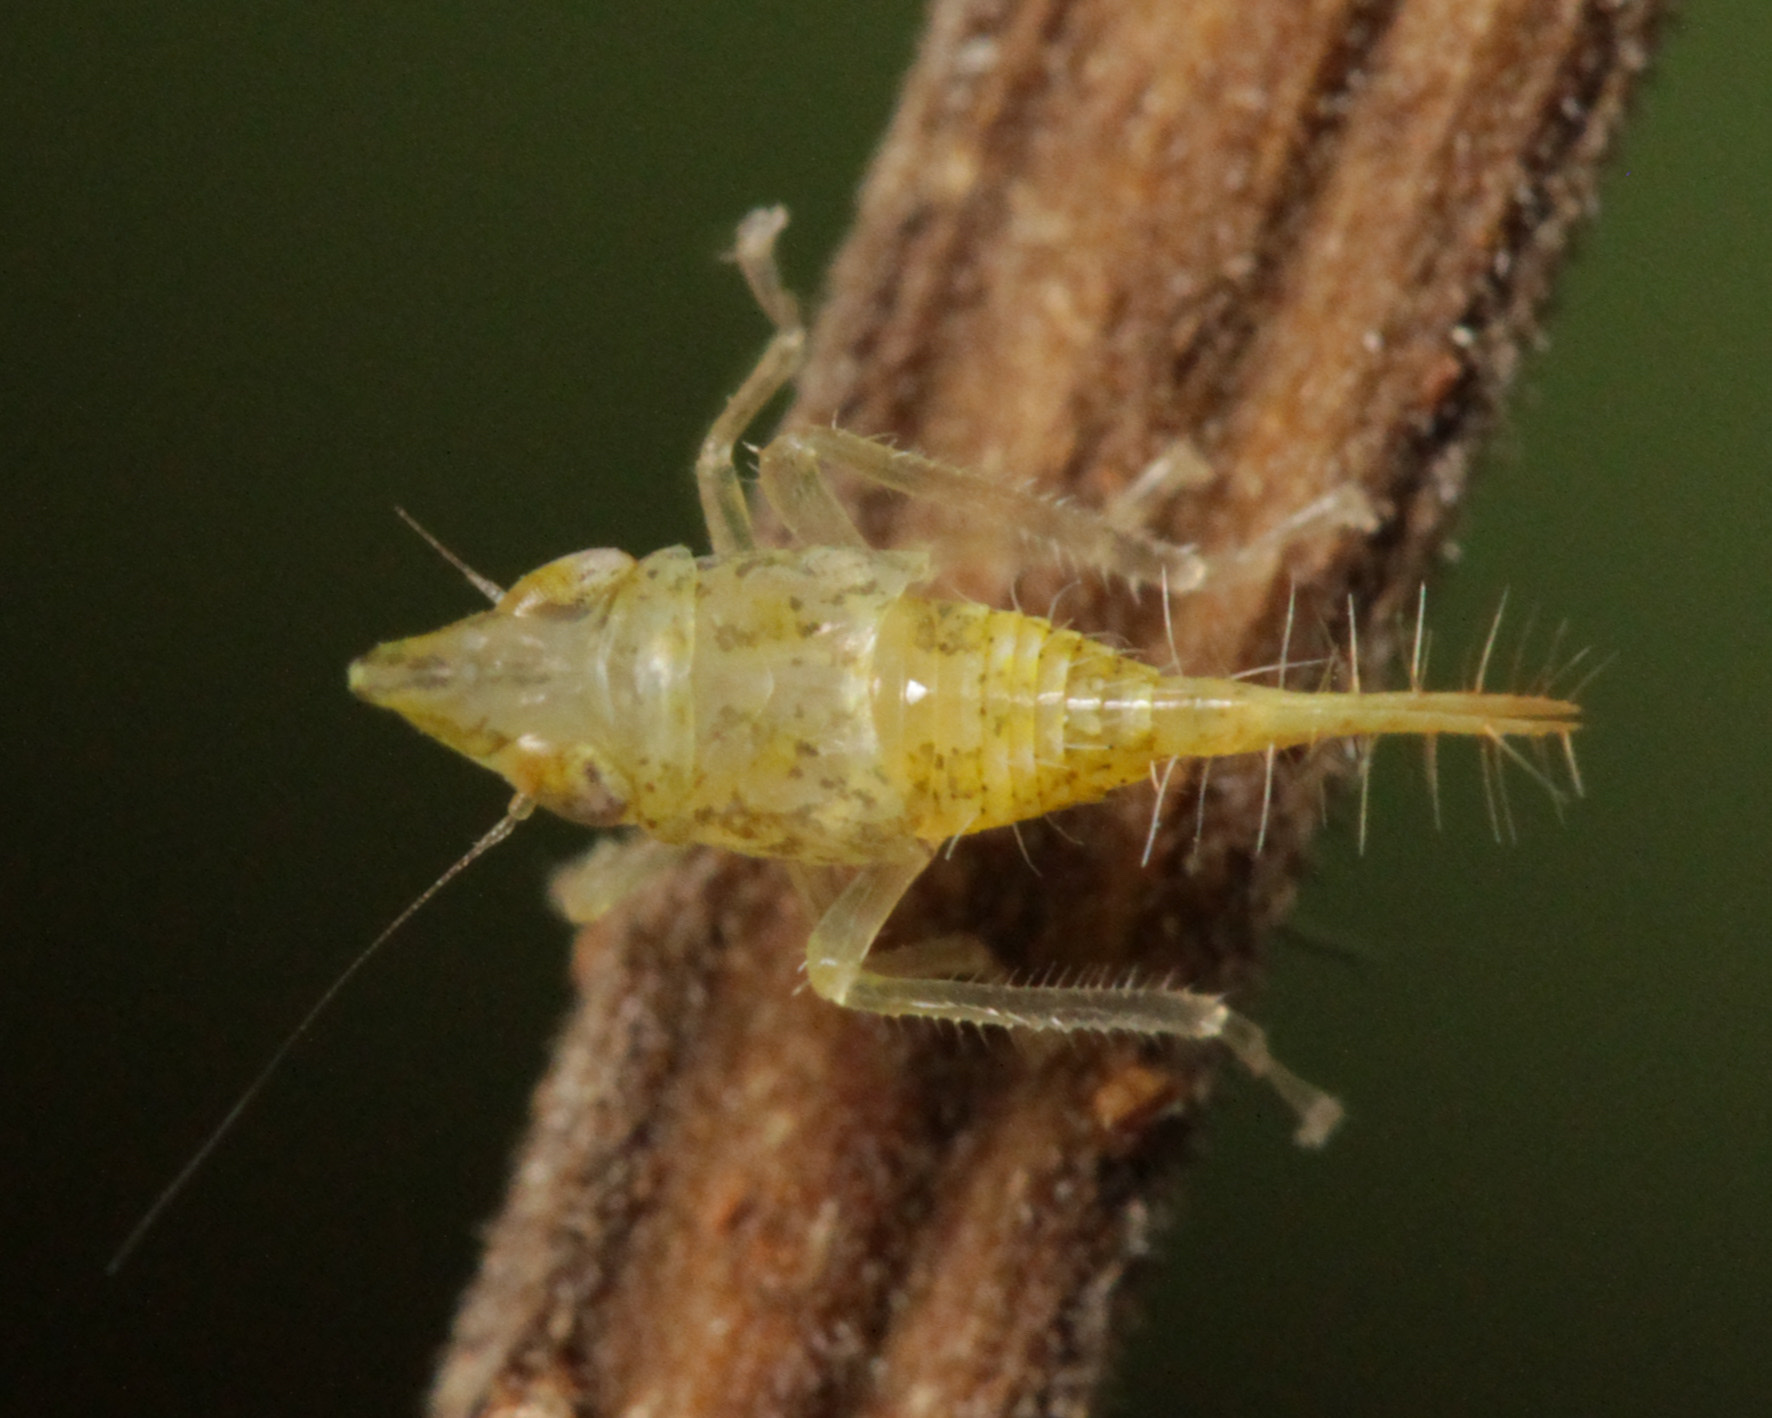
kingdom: Animalia
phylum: Arthropoda
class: Insecta
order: Hemiptera
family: Cicadellidae
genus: Japananus
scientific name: Japananus hyalinus
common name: The japanese maple leafhopper
